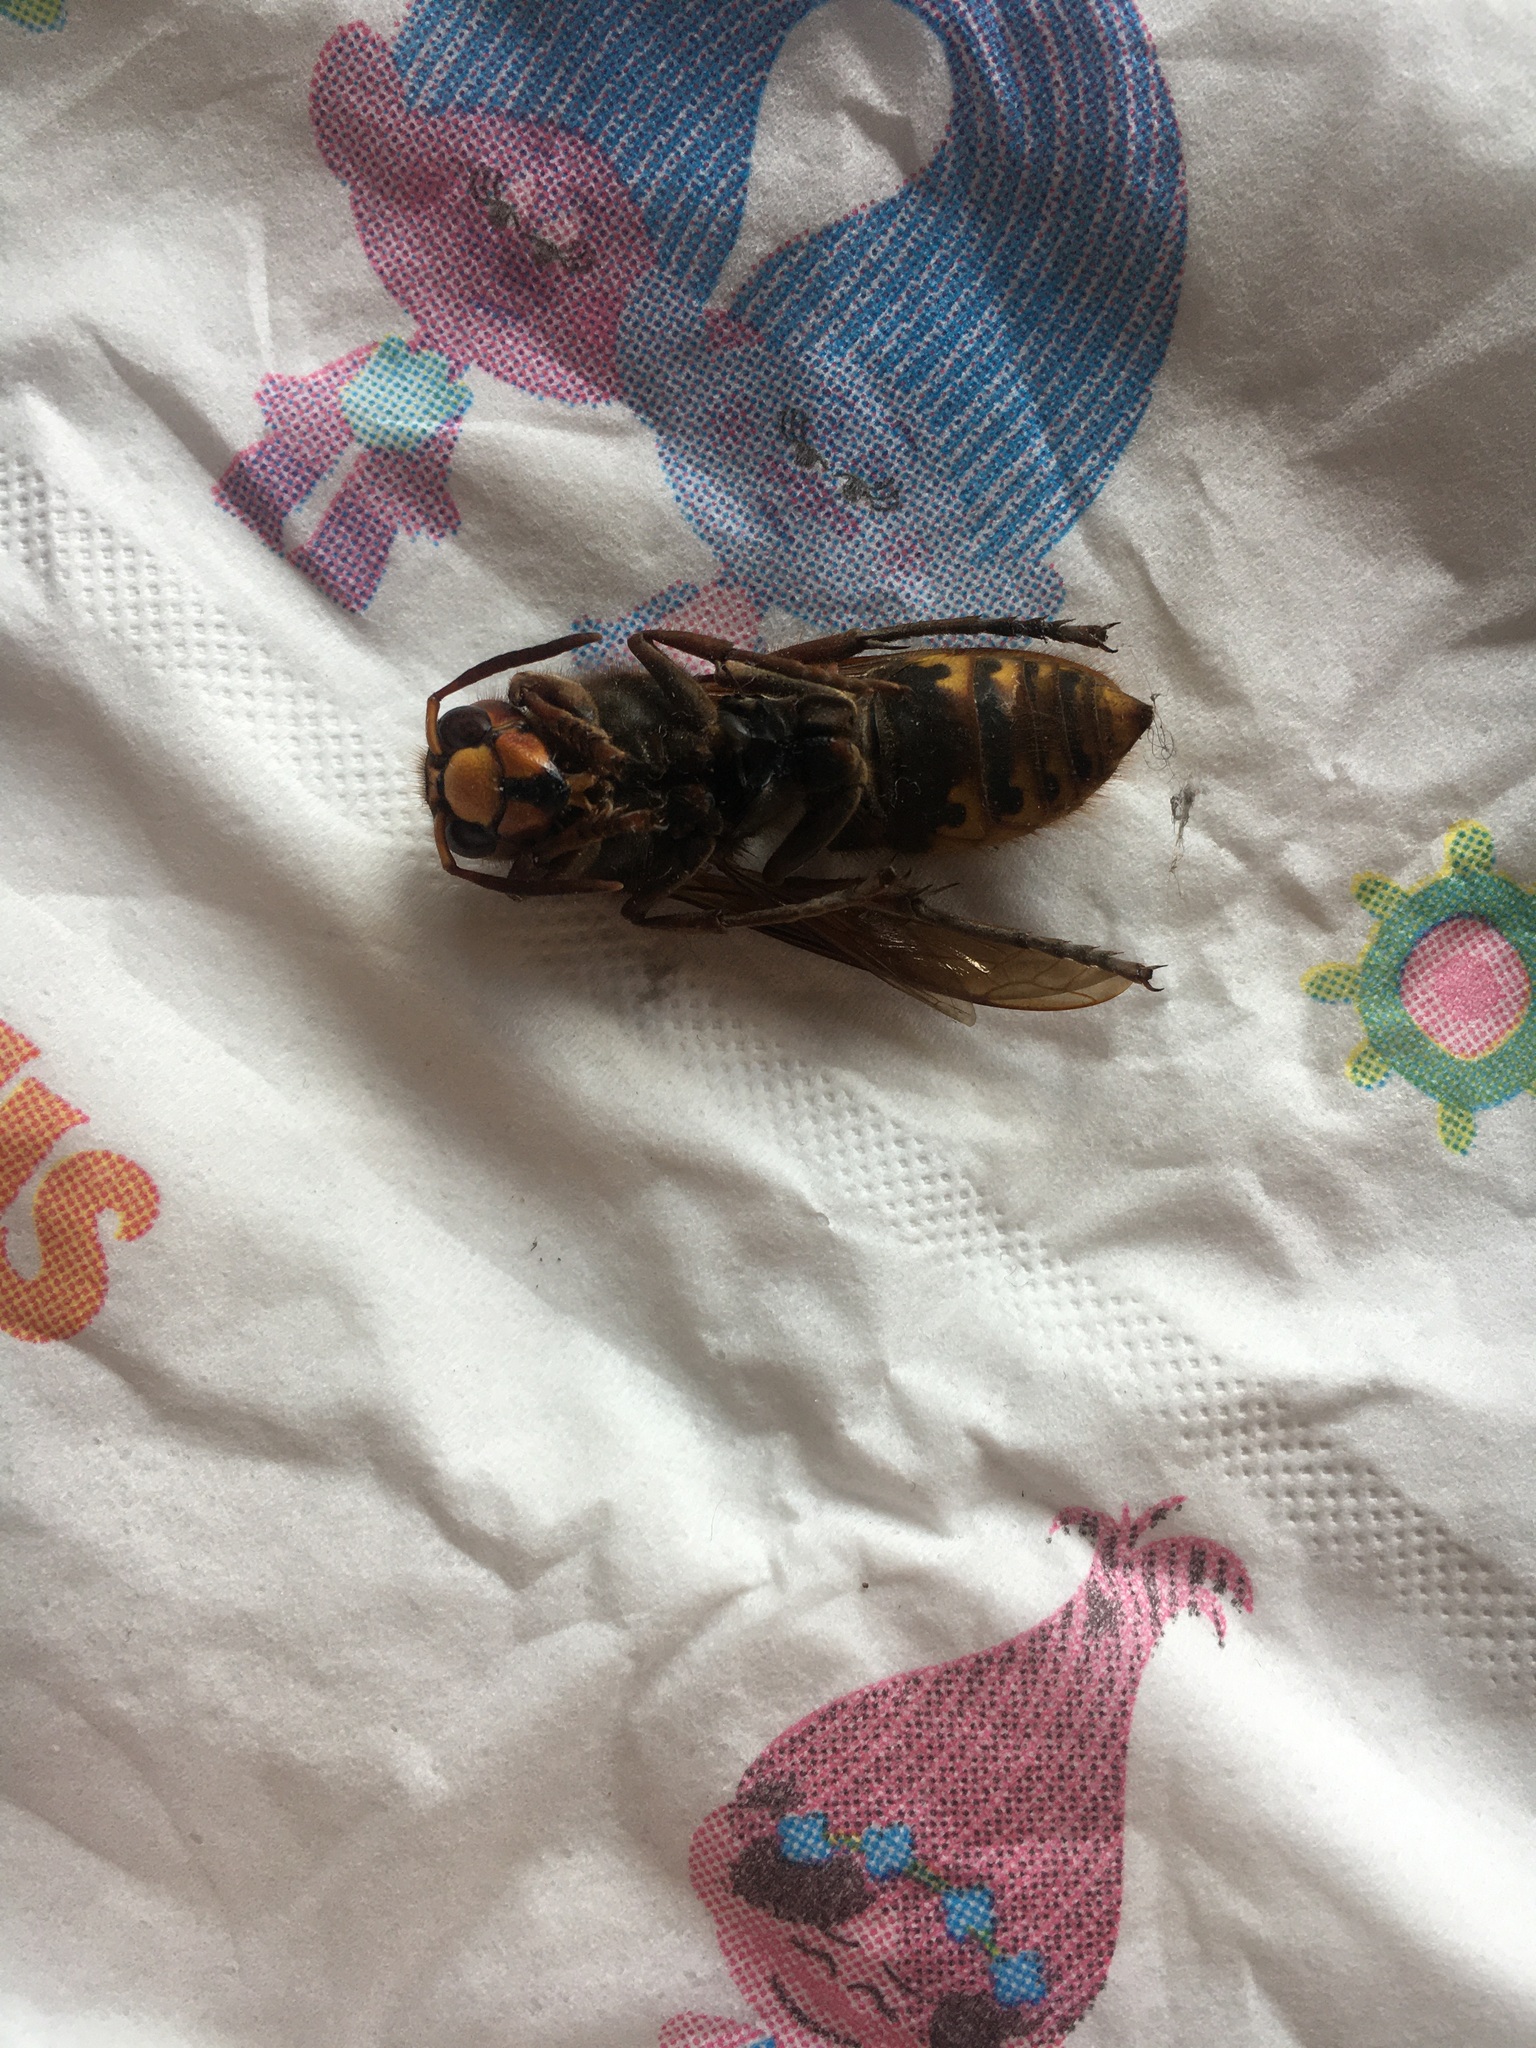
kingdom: Animalia
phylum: Arthropoda
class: Insecta
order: Hymenoptera
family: Vespidae
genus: Vespa
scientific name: Vespa crabro
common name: Hornet
